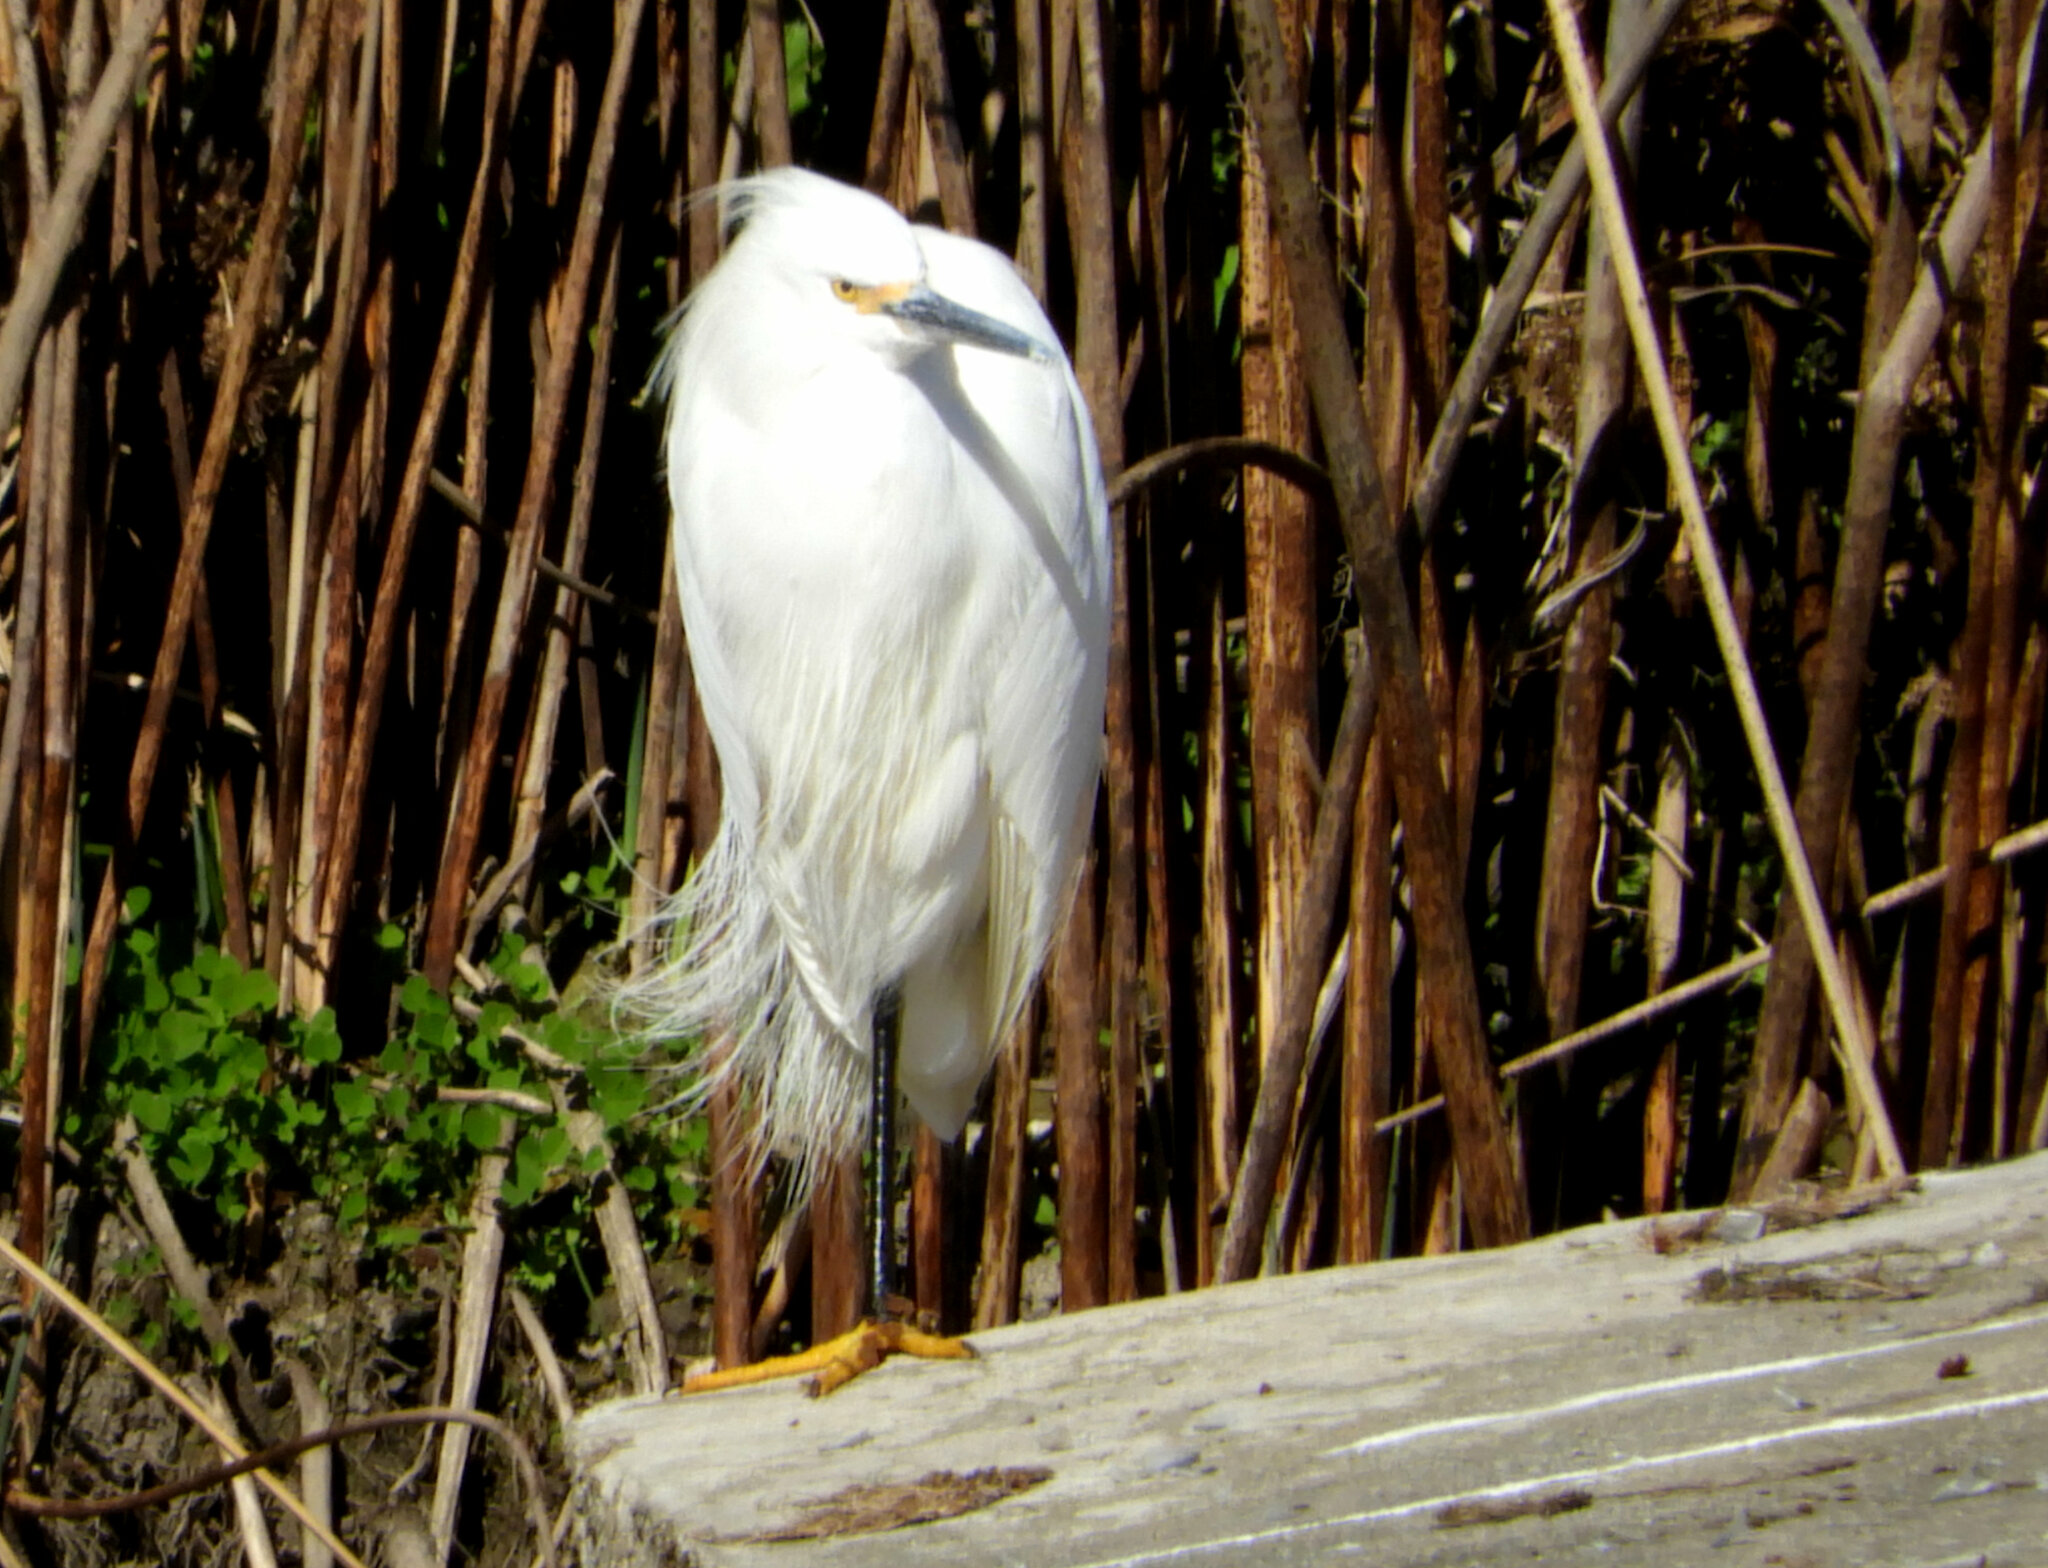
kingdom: Animalia
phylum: Chordata
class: Aves
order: Pelecaniformes
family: Ardeidae
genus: Egretta
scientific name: Egretta thula
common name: Snowy egret
